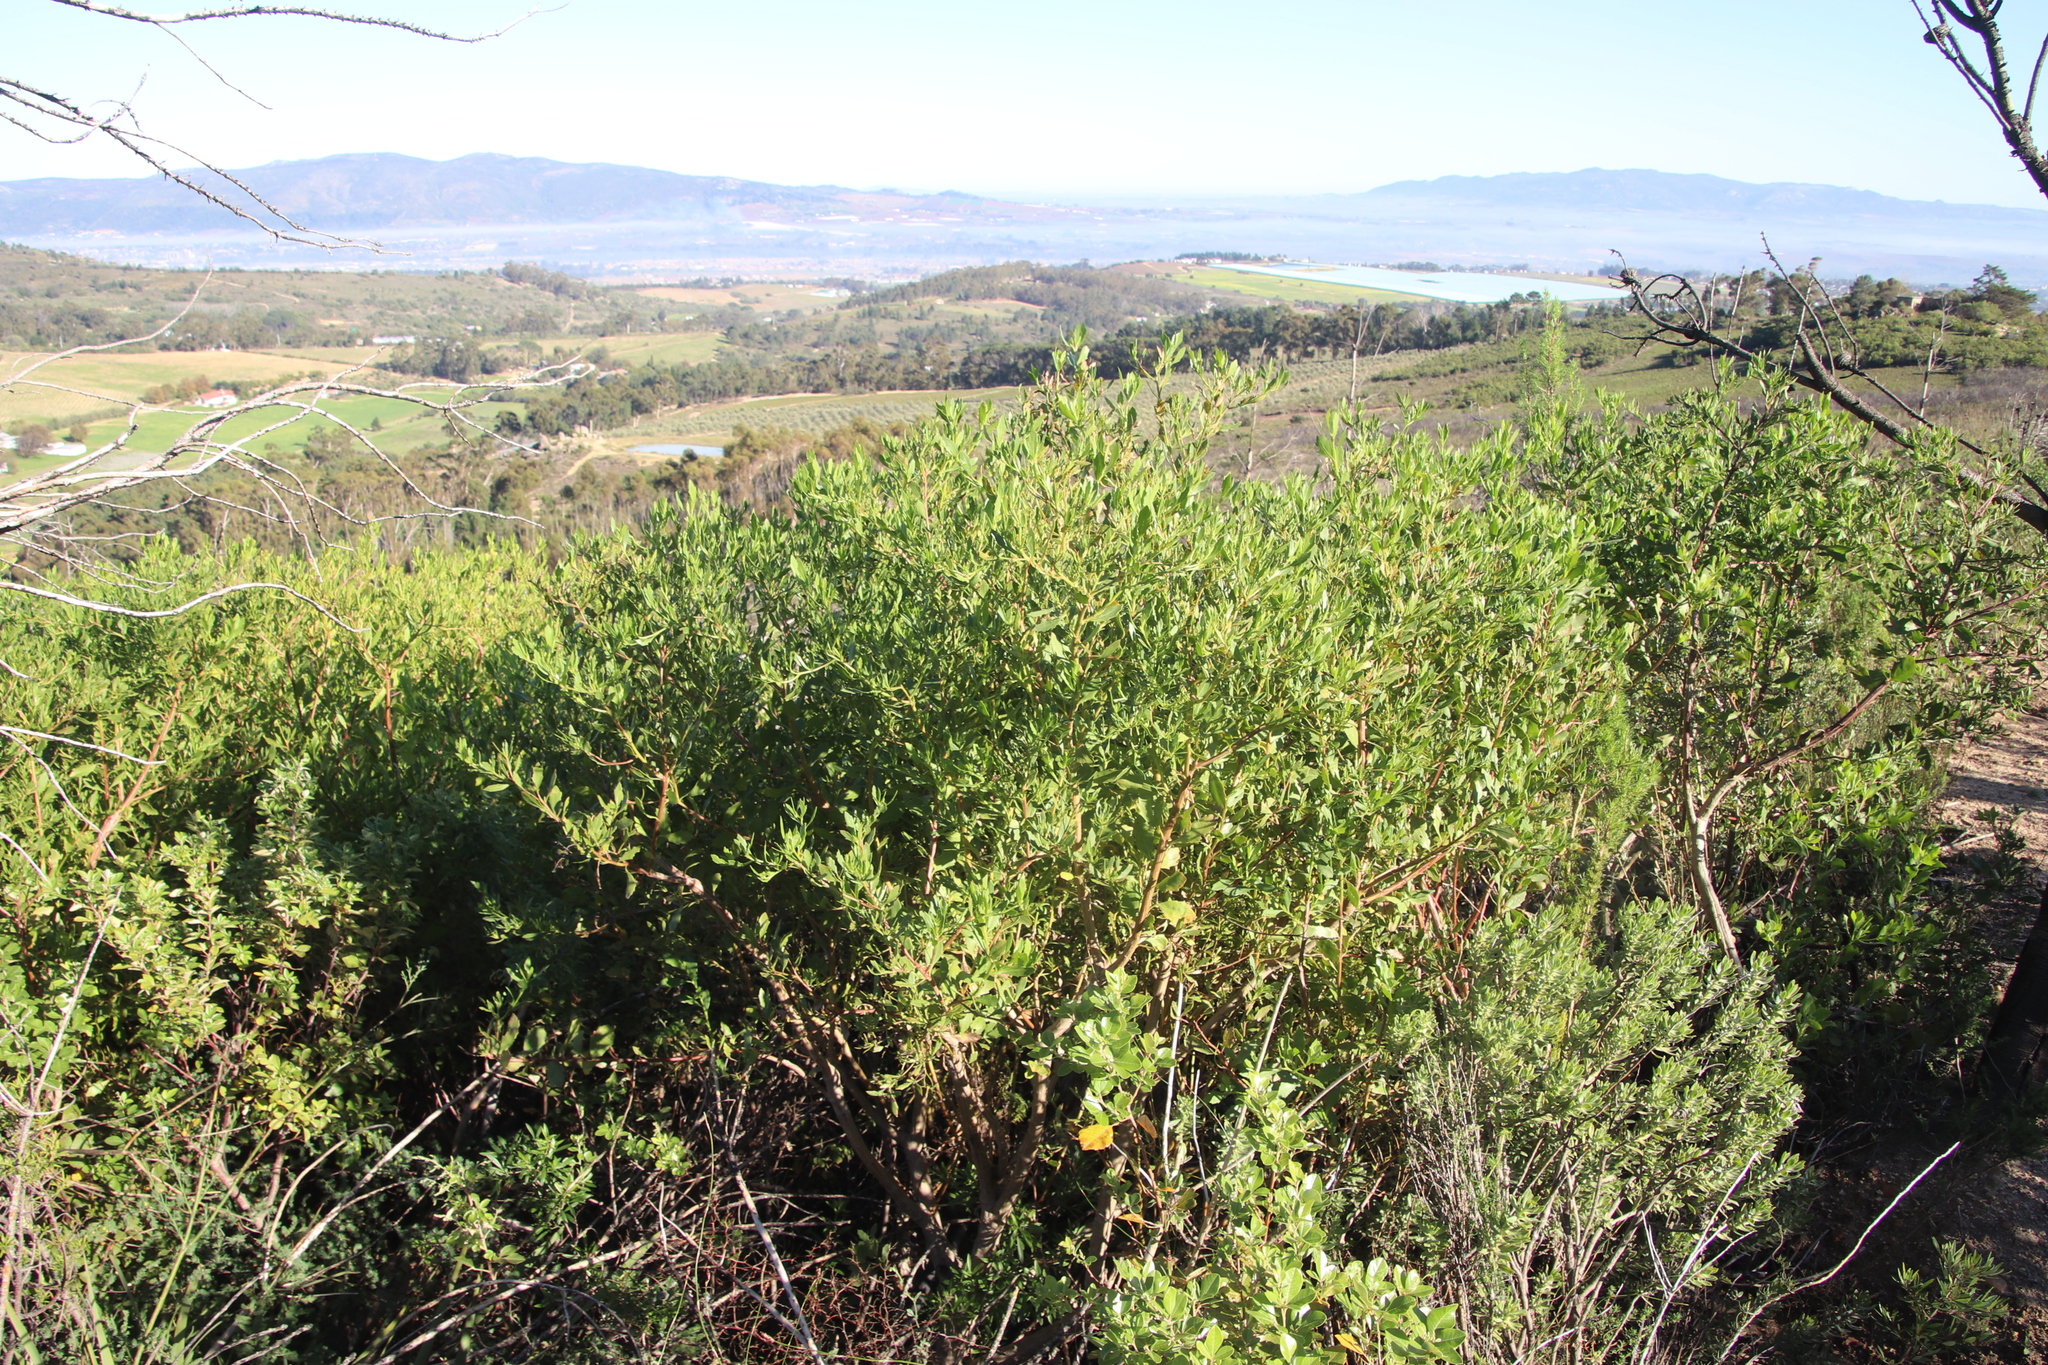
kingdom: Plantae
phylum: Tracheophyta
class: Magnoliopsida
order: Asterales
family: Asteraceae
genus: Osteospermum
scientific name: Osteospermum moniliferum
